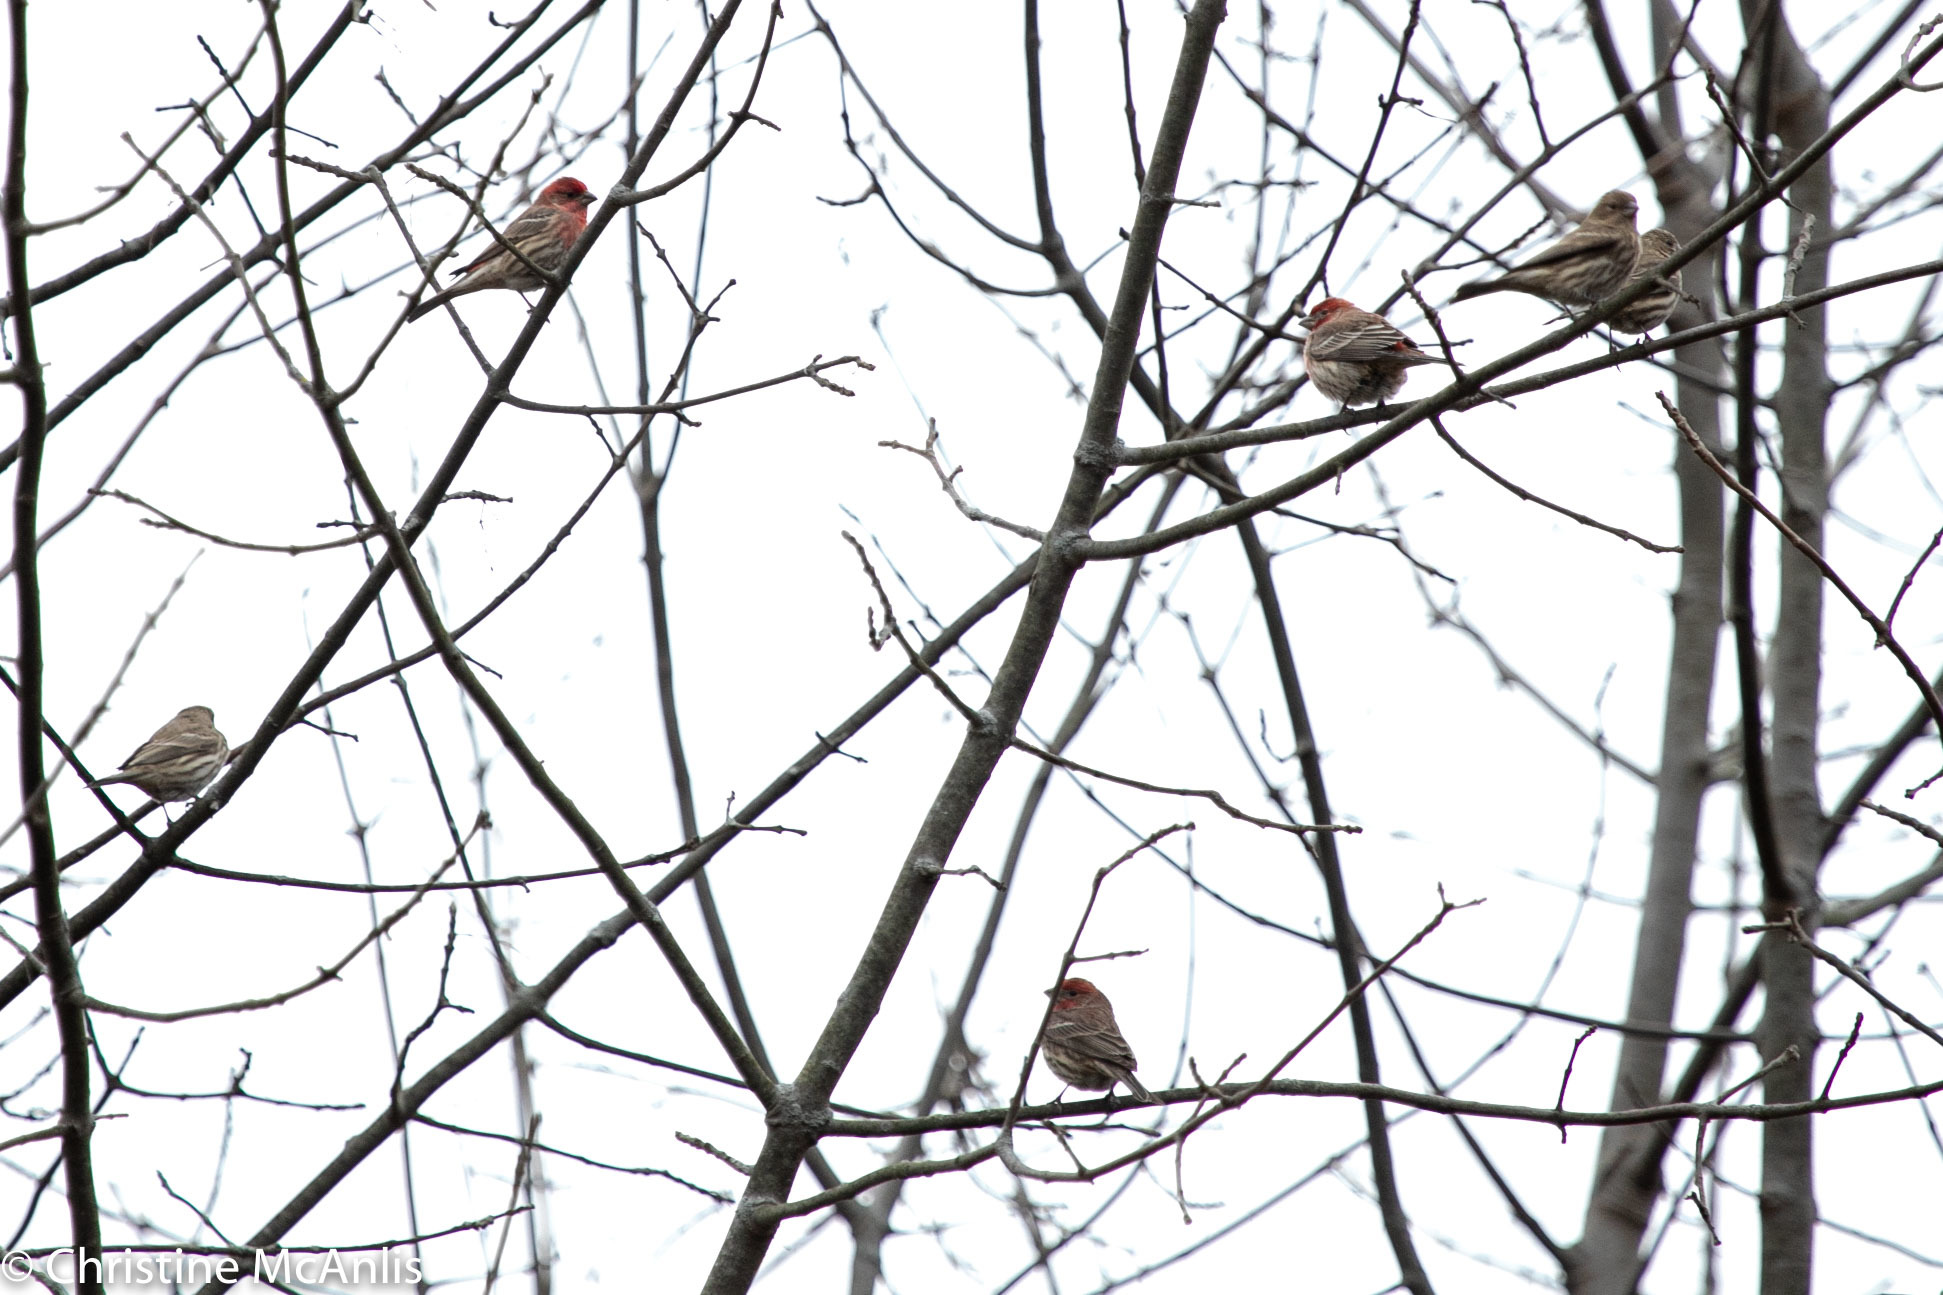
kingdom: Animalia
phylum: Chordata
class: Aves
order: Passeriformes
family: Fringillidae
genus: Haemorhous
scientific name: Haemorhous mexicanus
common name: House finch
